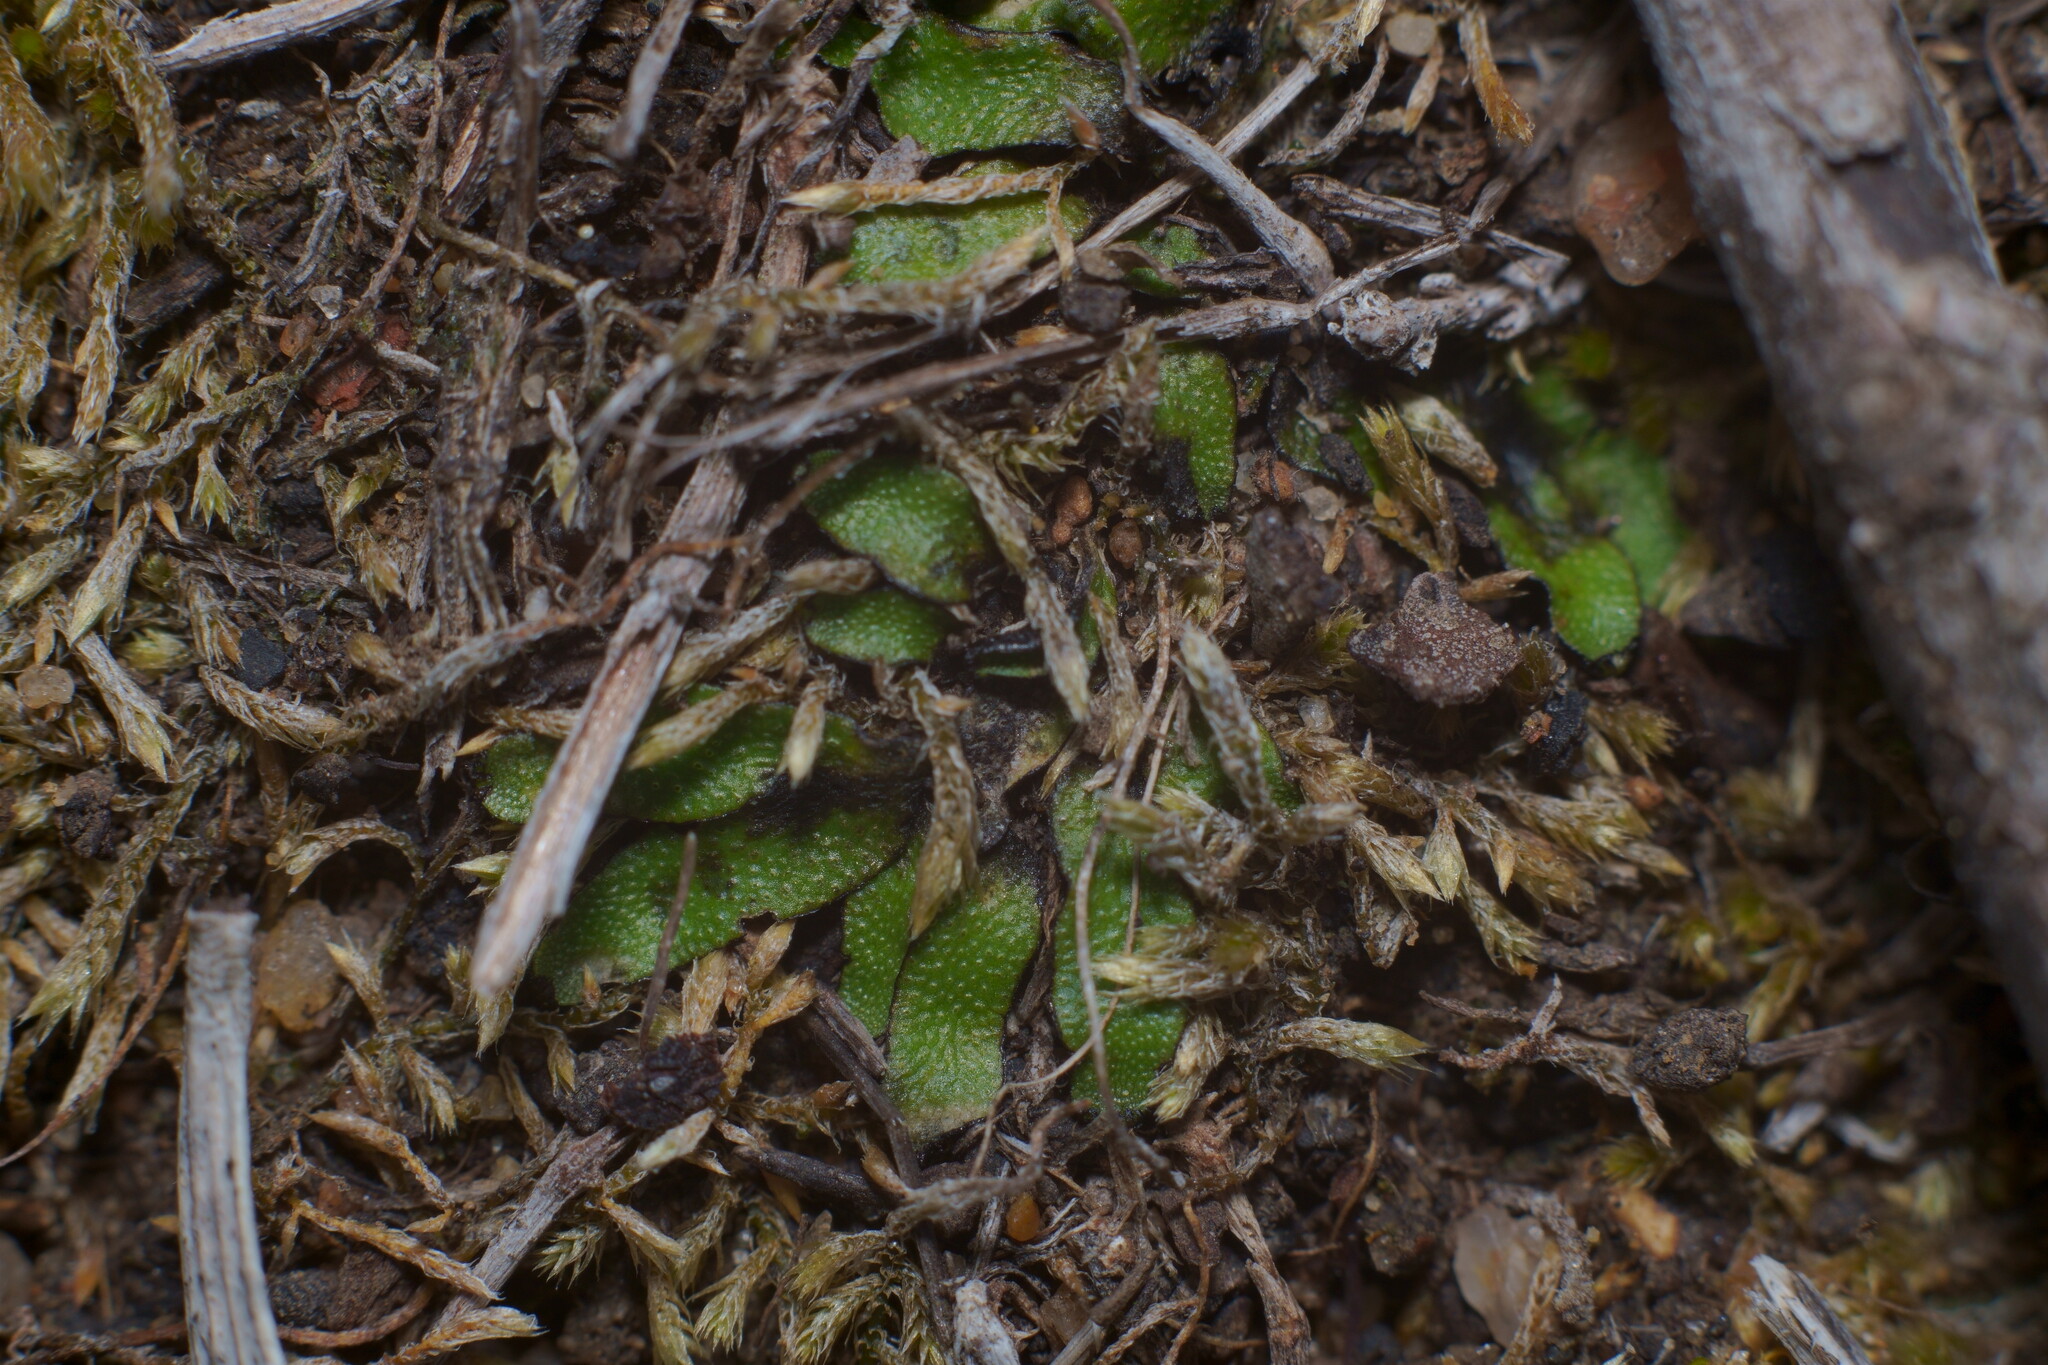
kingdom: Plantae
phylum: Marchantiophyta
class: Marchantiopsida
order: Marchantiales
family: Targioniaceae
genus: Targionia
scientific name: Targionia hypophylla
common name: Orobus-seed liverwort
